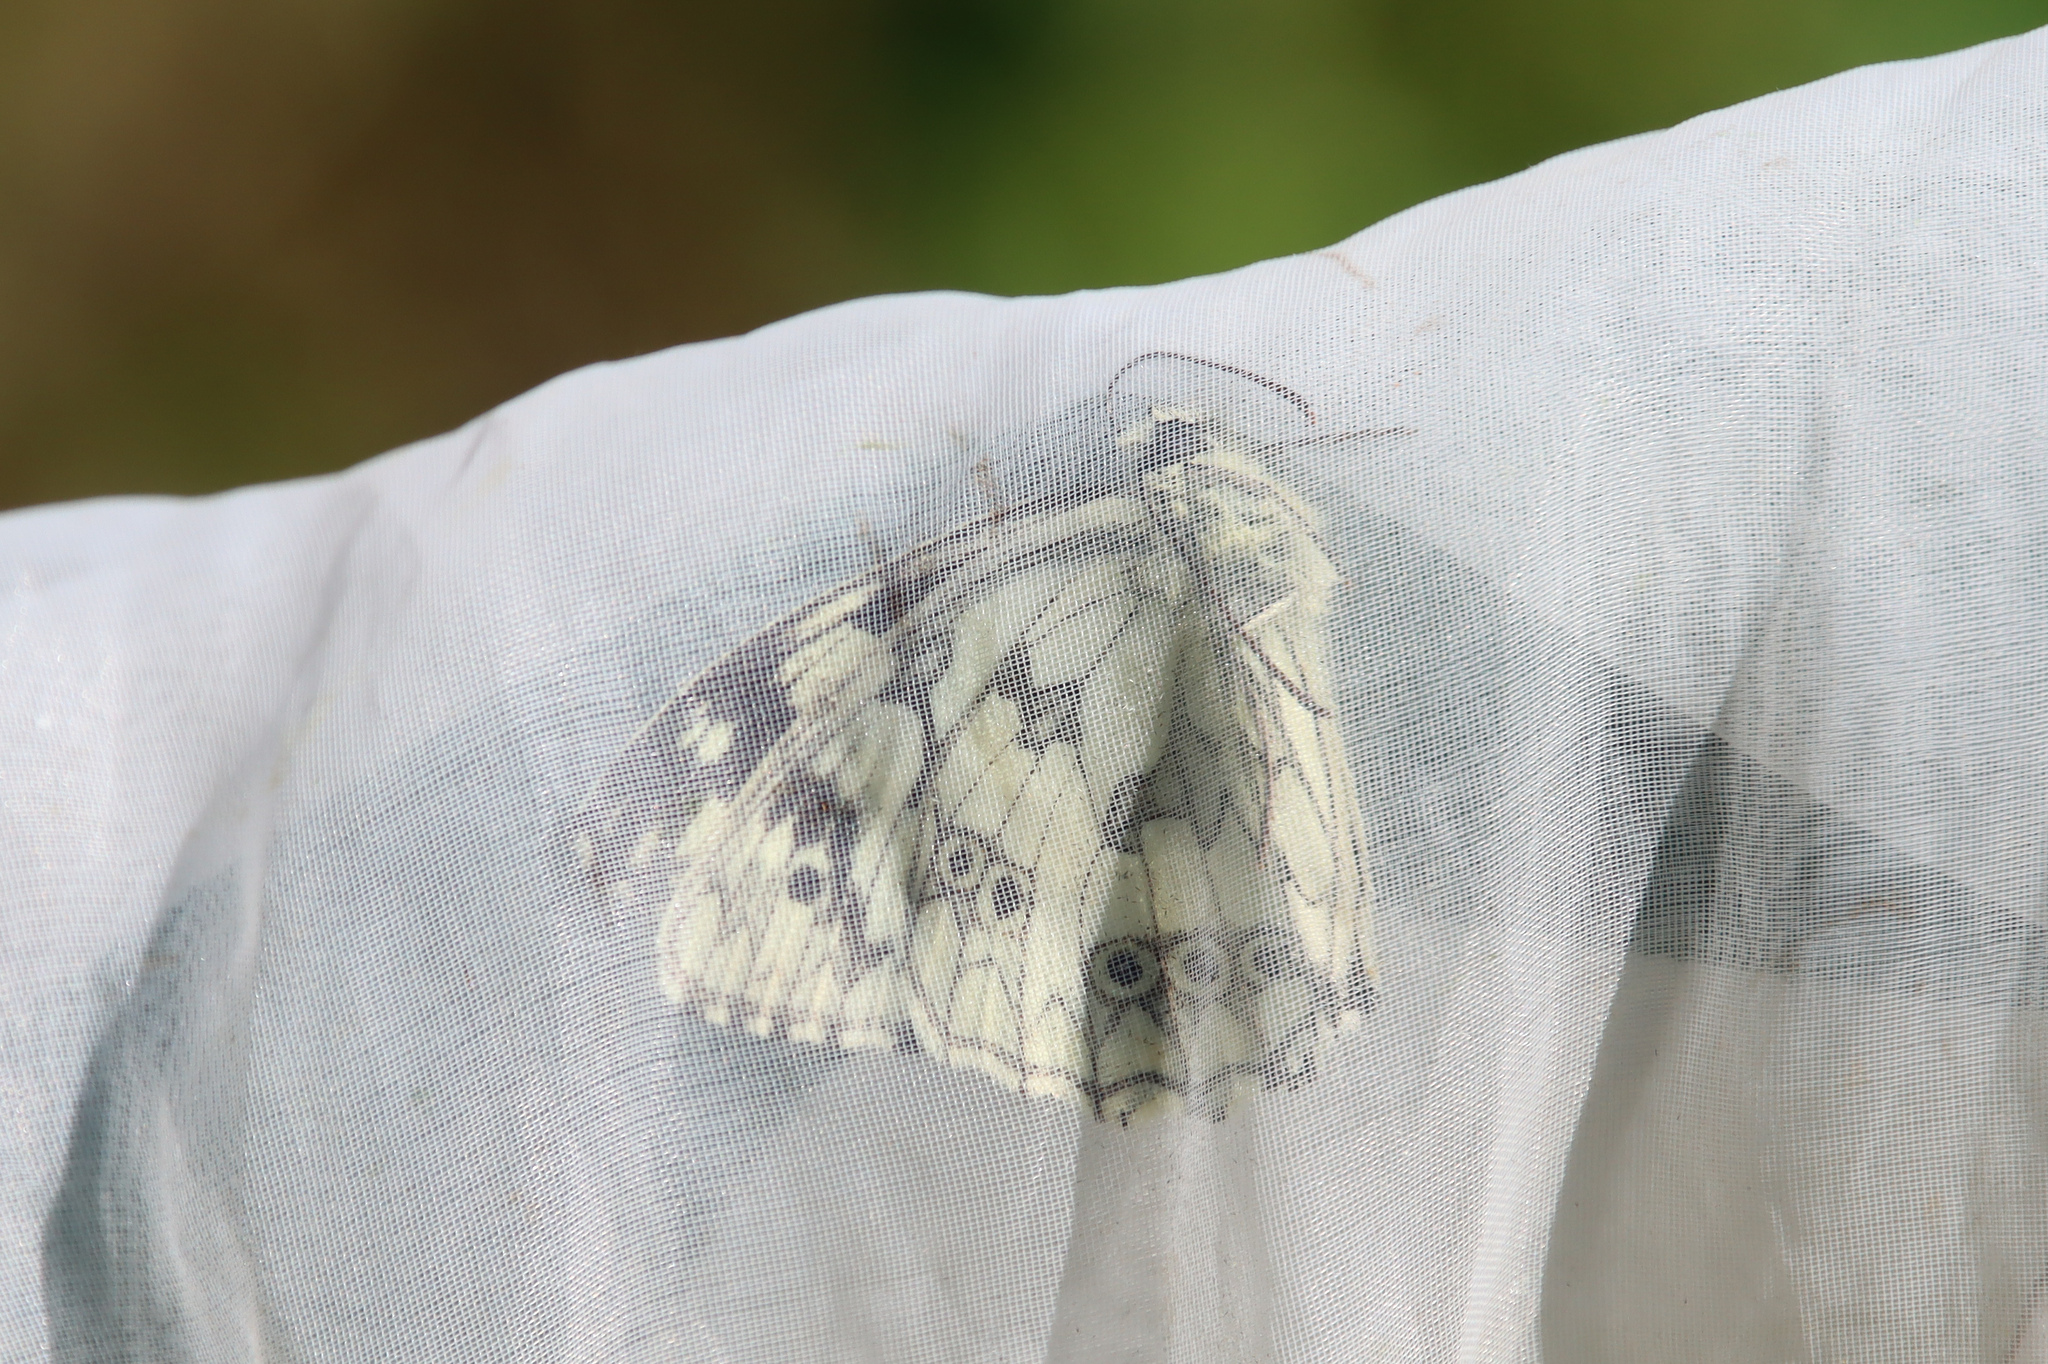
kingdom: Animalia
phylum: Arthropoda
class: Insecta
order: Lepidoptera
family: Nymphalidae
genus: Melanargia
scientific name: Melanargia galathea
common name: Marbled white
